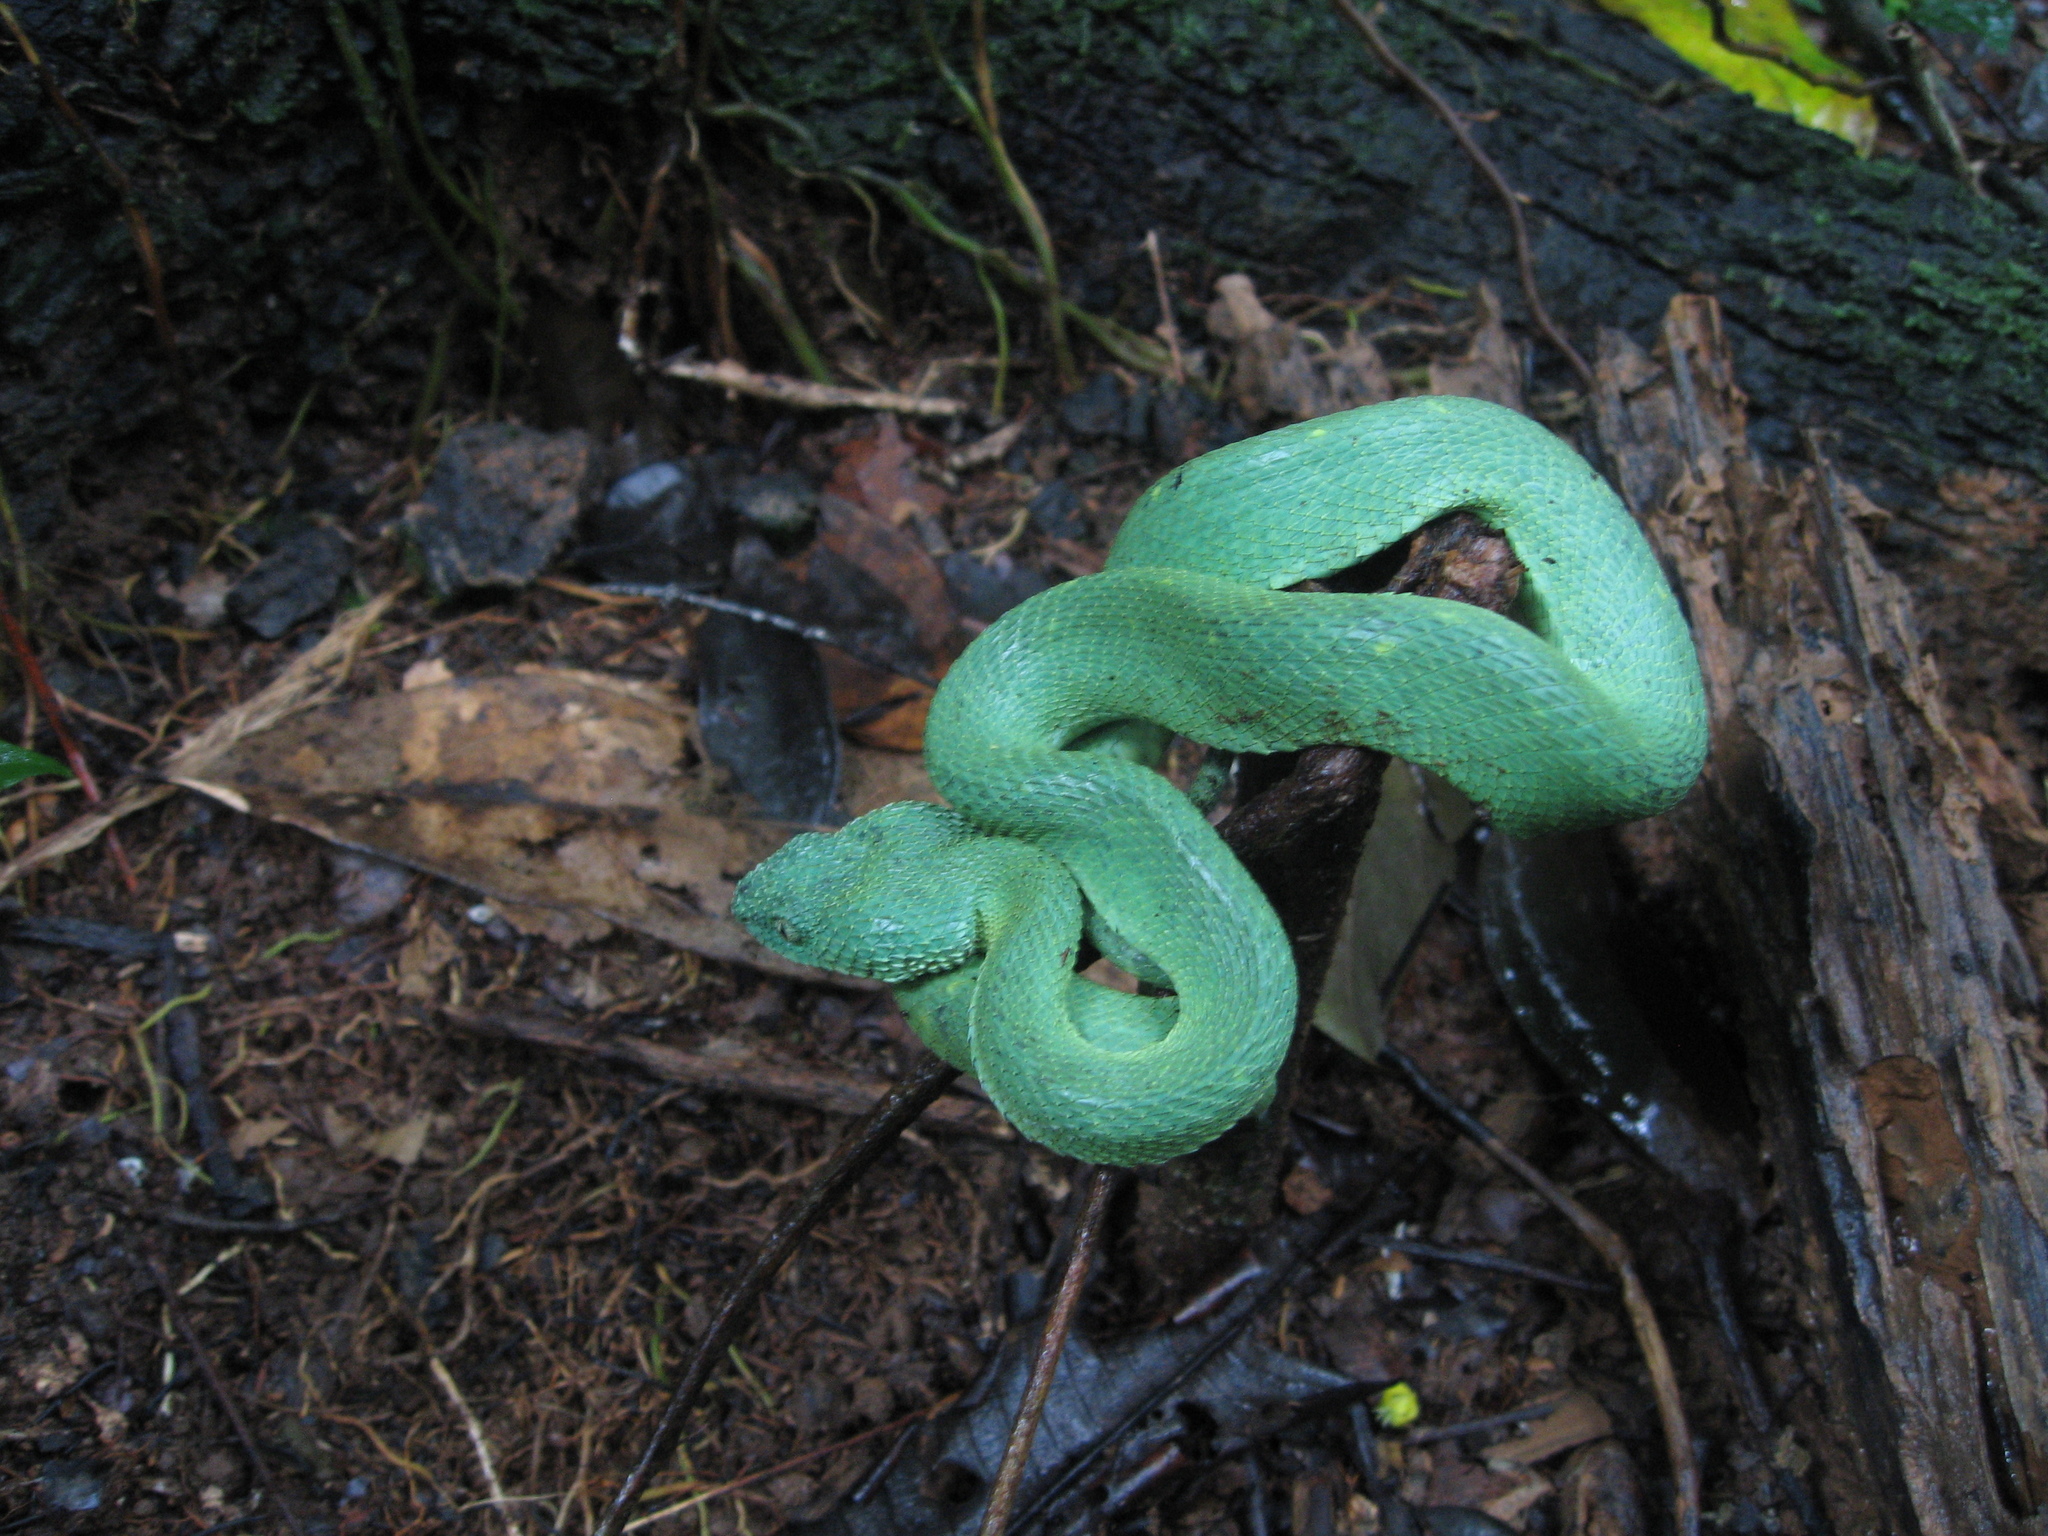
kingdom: Animalia
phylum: Chordata
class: Squamata
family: Viperidae
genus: Atheris
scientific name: Atheris chlorechis
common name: Green bush viper
